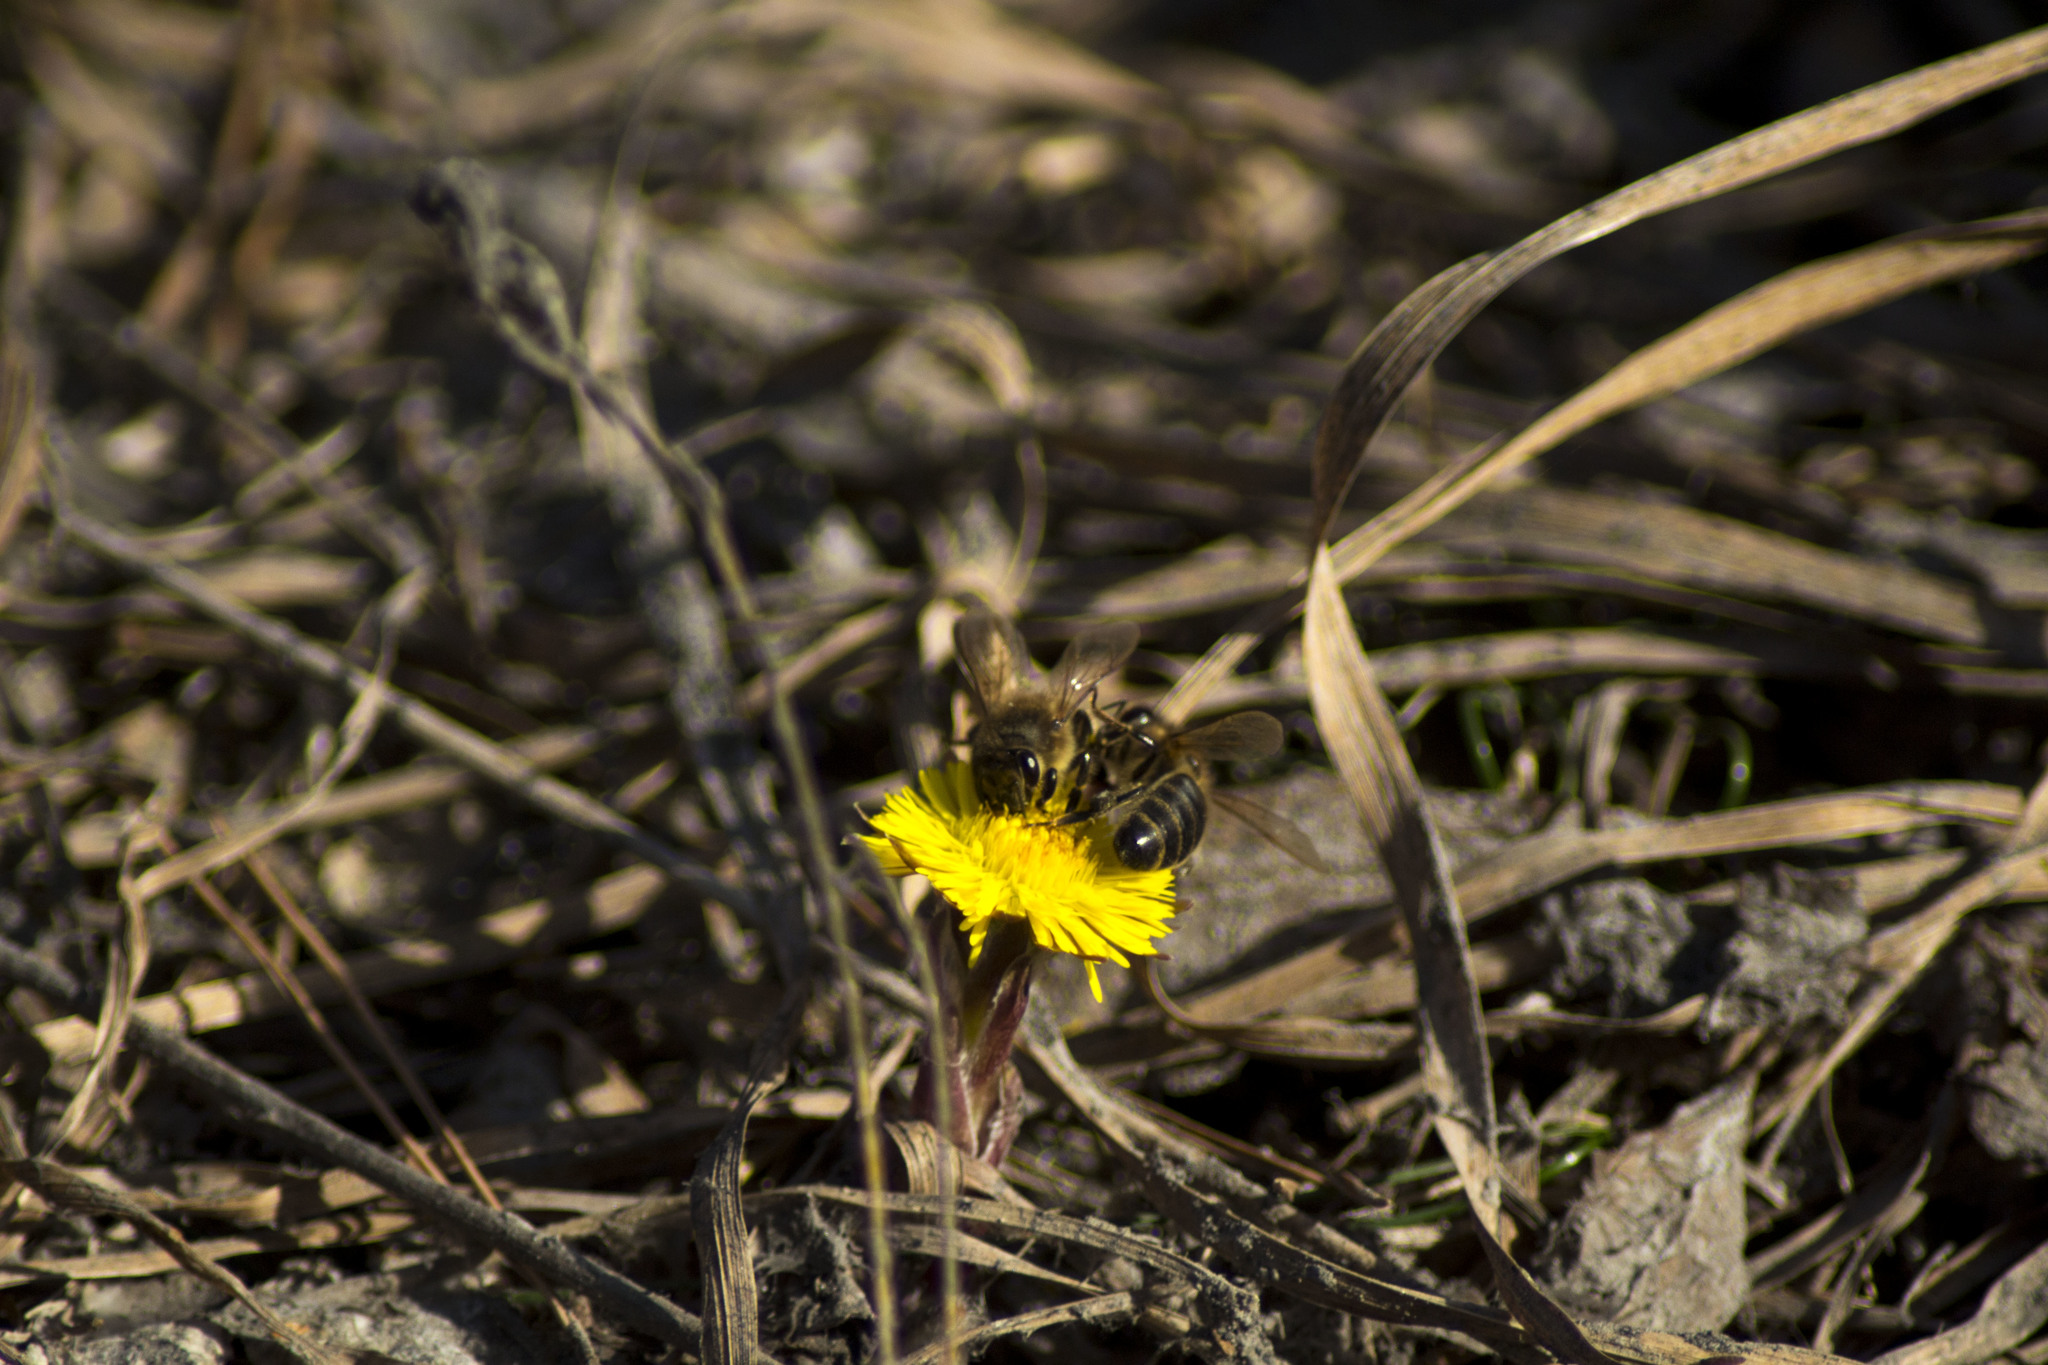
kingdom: Animalia
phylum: Arthropoda
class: Insecta
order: Hymenoptera
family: Apidae
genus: Apis
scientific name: Apis mellifera
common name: Honey bee
